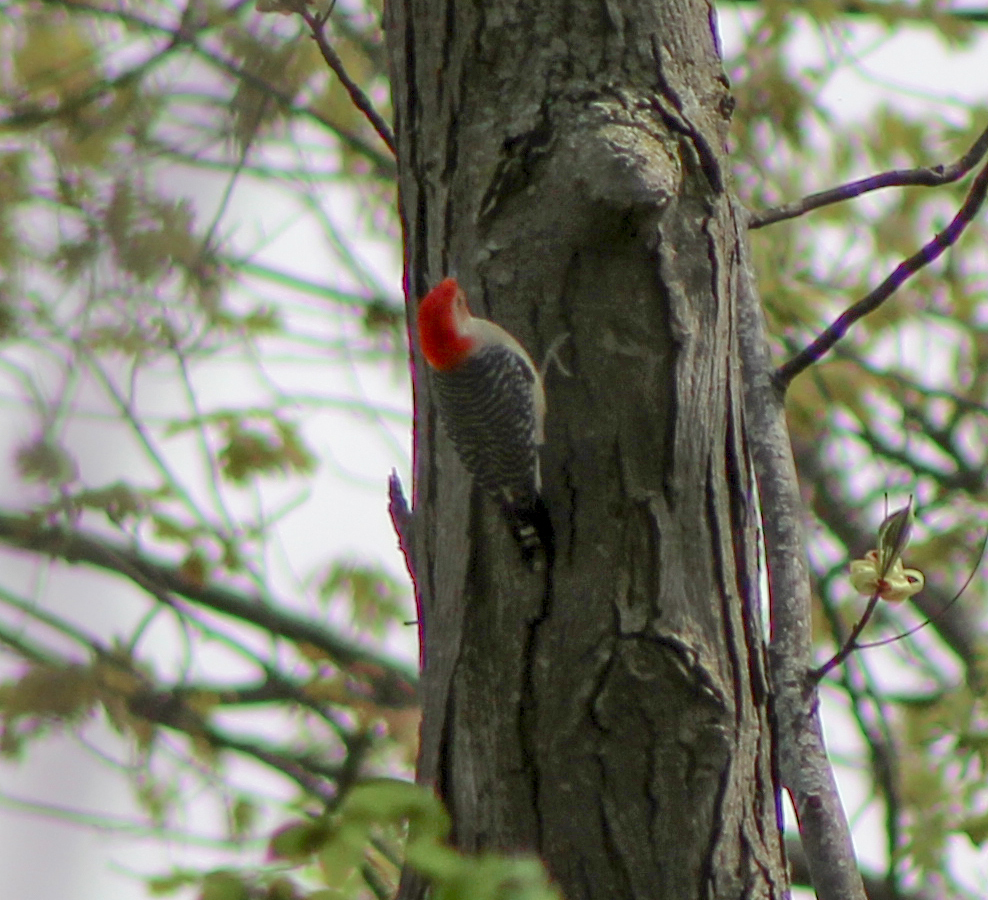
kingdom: Animalia
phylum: Chordata
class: Aves
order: Piciformes
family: Picidae
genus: Melanerpes
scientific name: Melanerpes carolinus
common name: Red-bellied woodpecker
